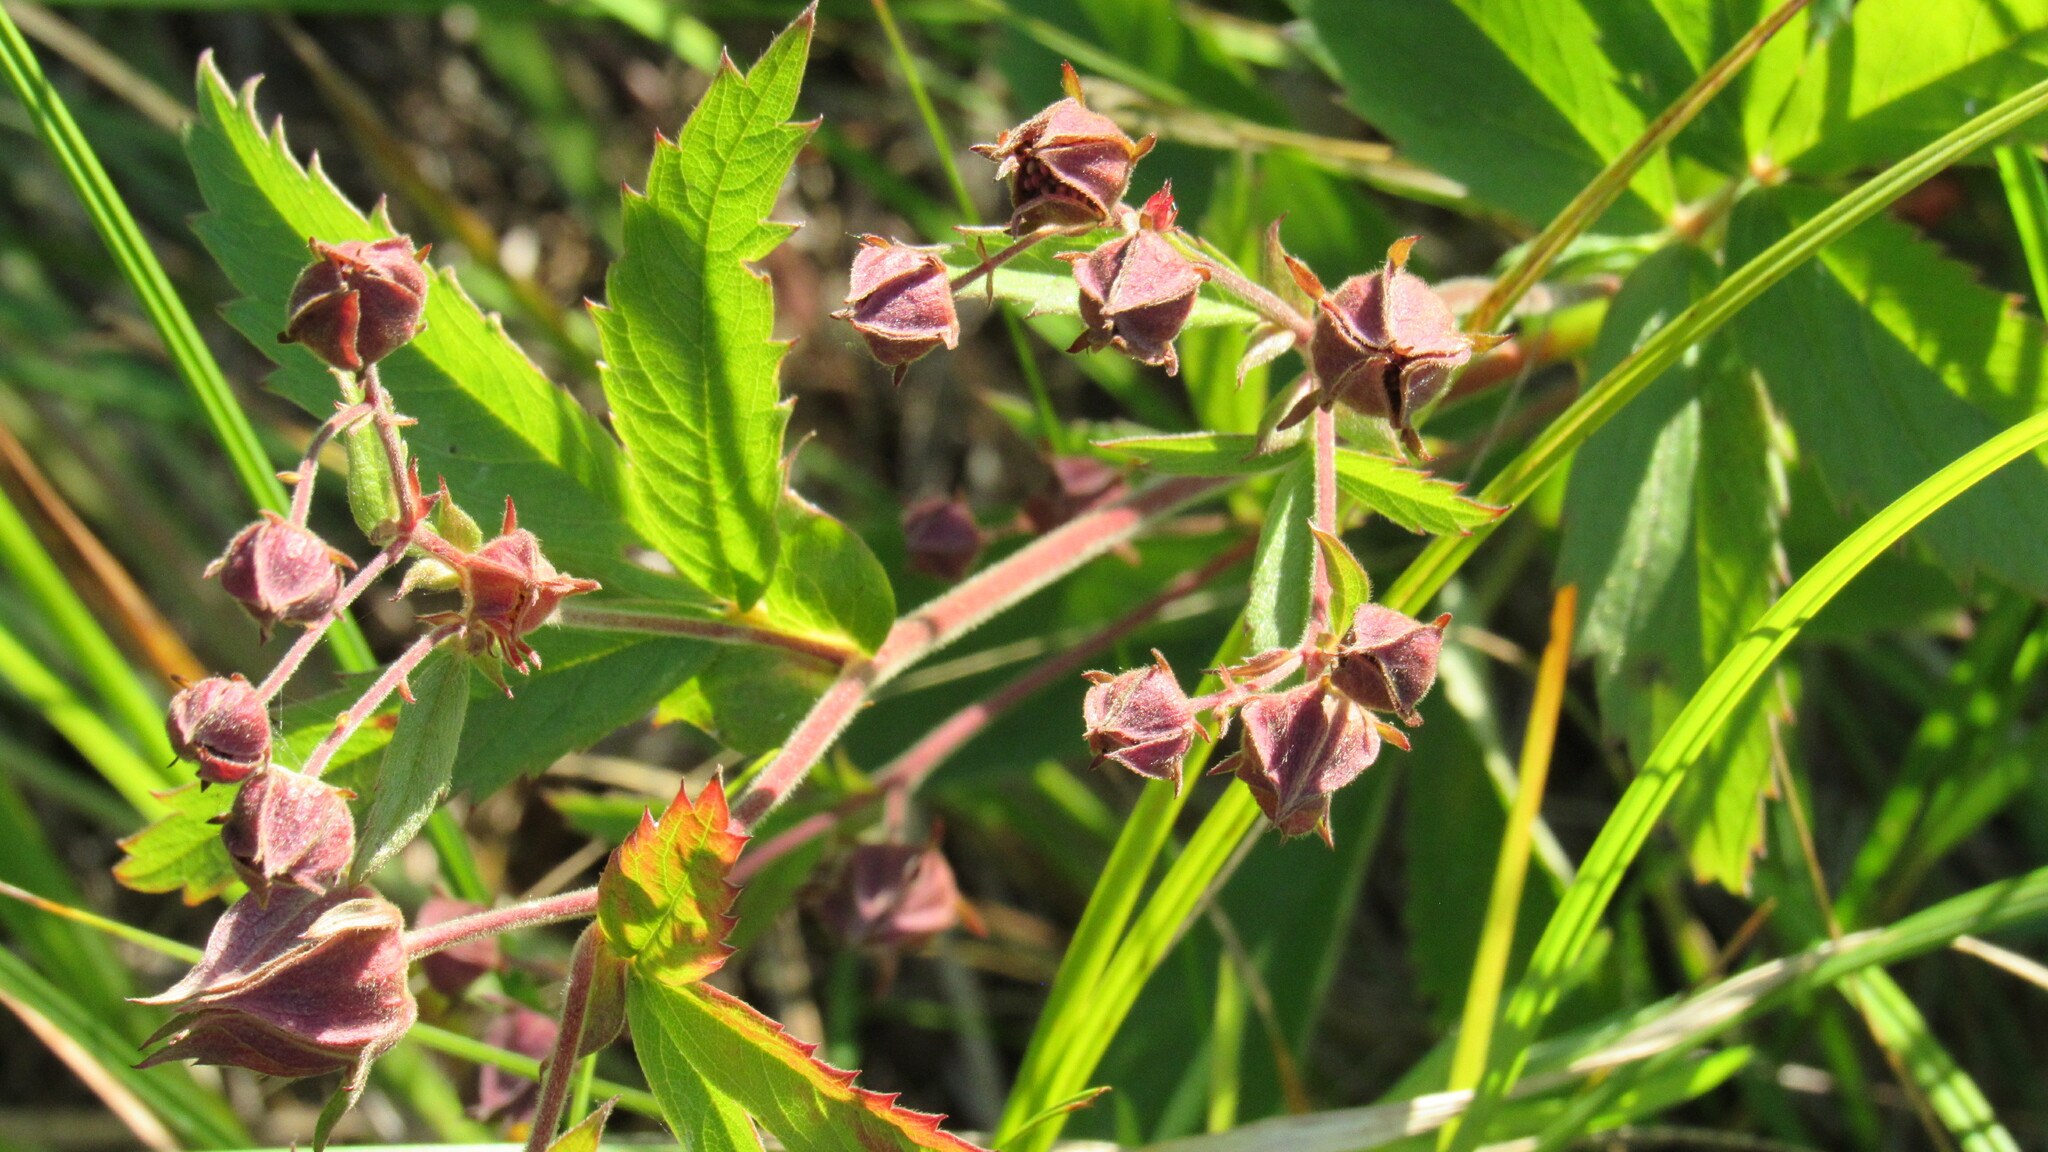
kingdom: Plantae
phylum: Tracheophyta
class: Magnoliopsida
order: Rosales
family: Rosaceae
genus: Comarum
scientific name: Comarum palustre
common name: Marsh cinquefoil
